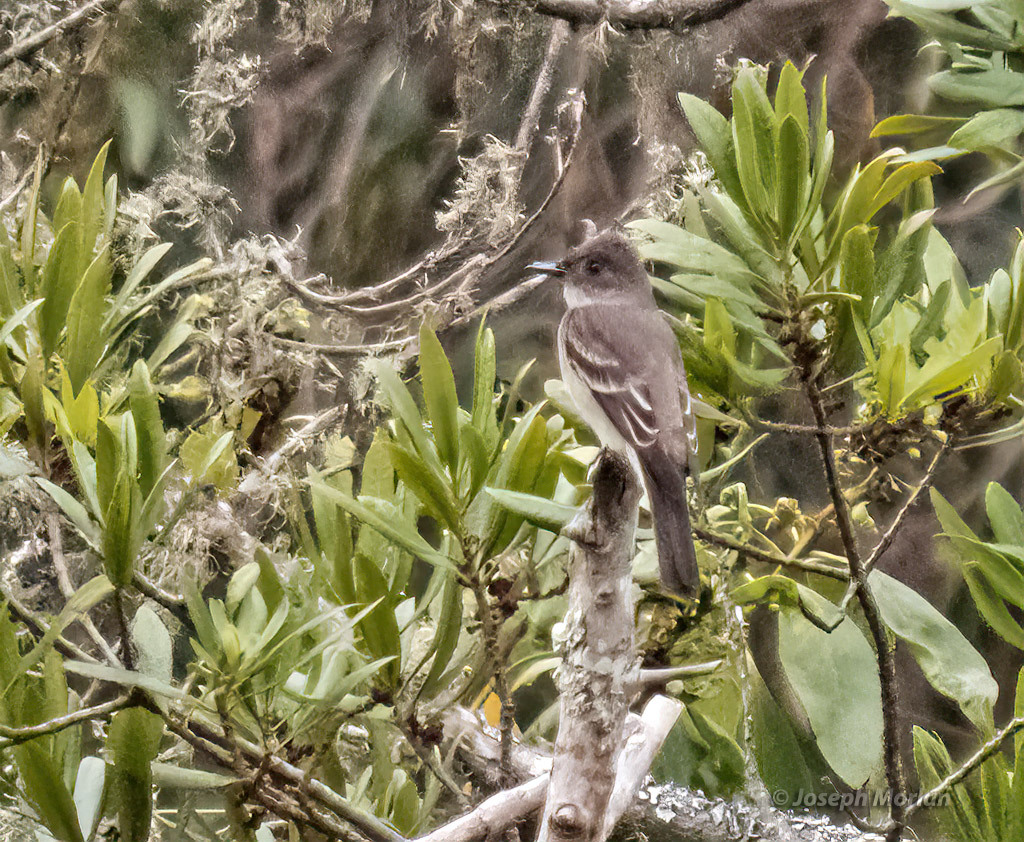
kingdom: Animalia
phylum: Chordata
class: Aves
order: Passeriformes
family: Tyrannidae
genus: Contopus
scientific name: Contopus sordidulus
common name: Western wood-pewee
